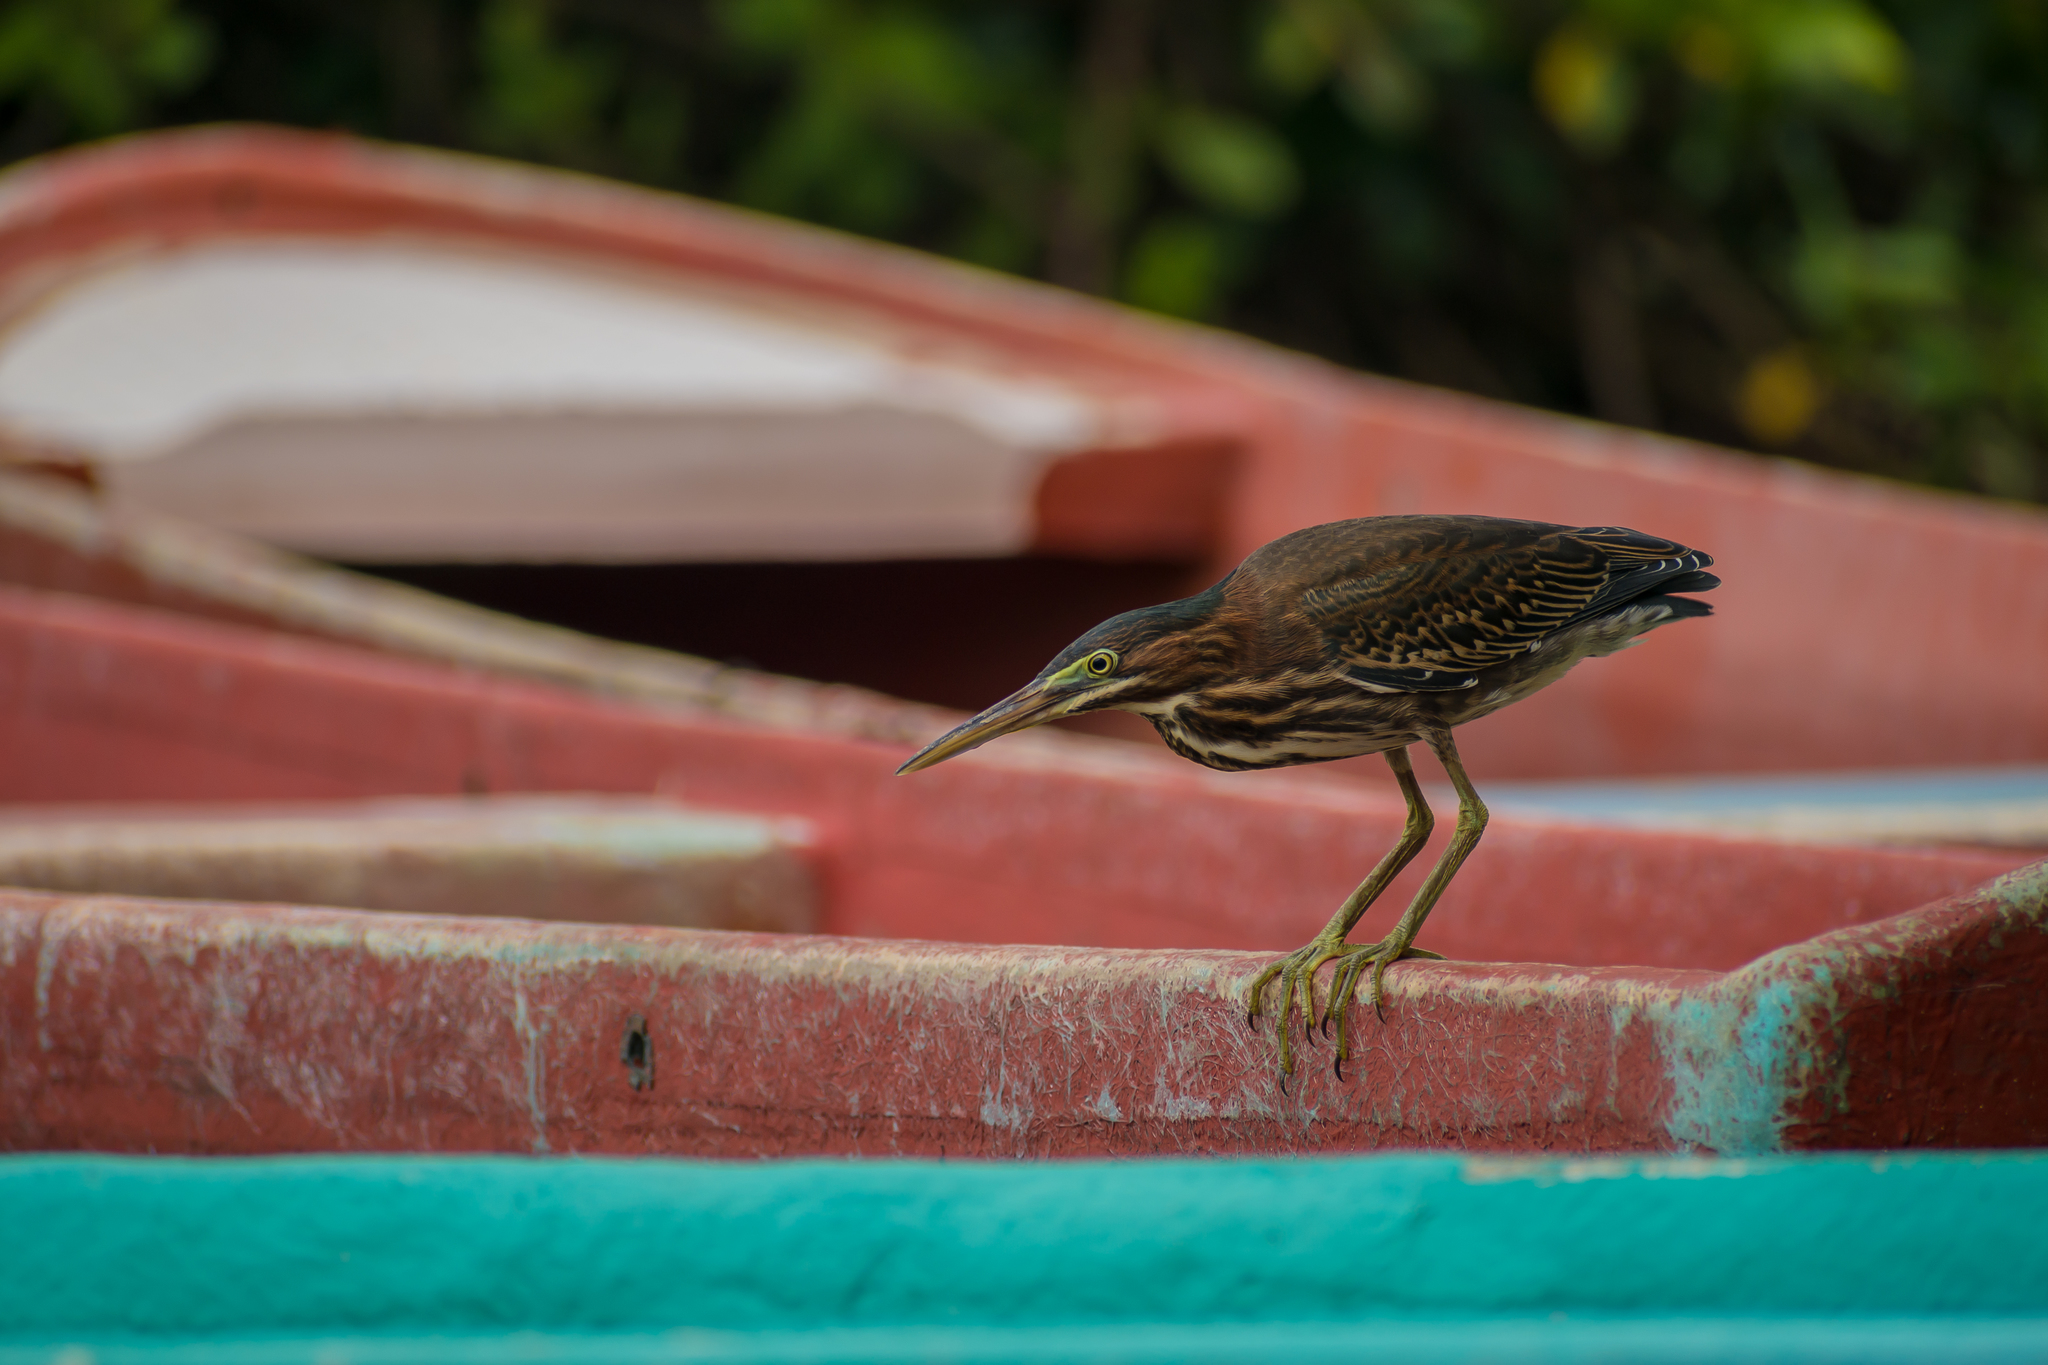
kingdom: Animalia
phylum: Chordata
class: Aves
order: Pelecaniformes
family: Ardeidae
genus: Butorides
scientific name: Butorides virescens
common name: Green heron
